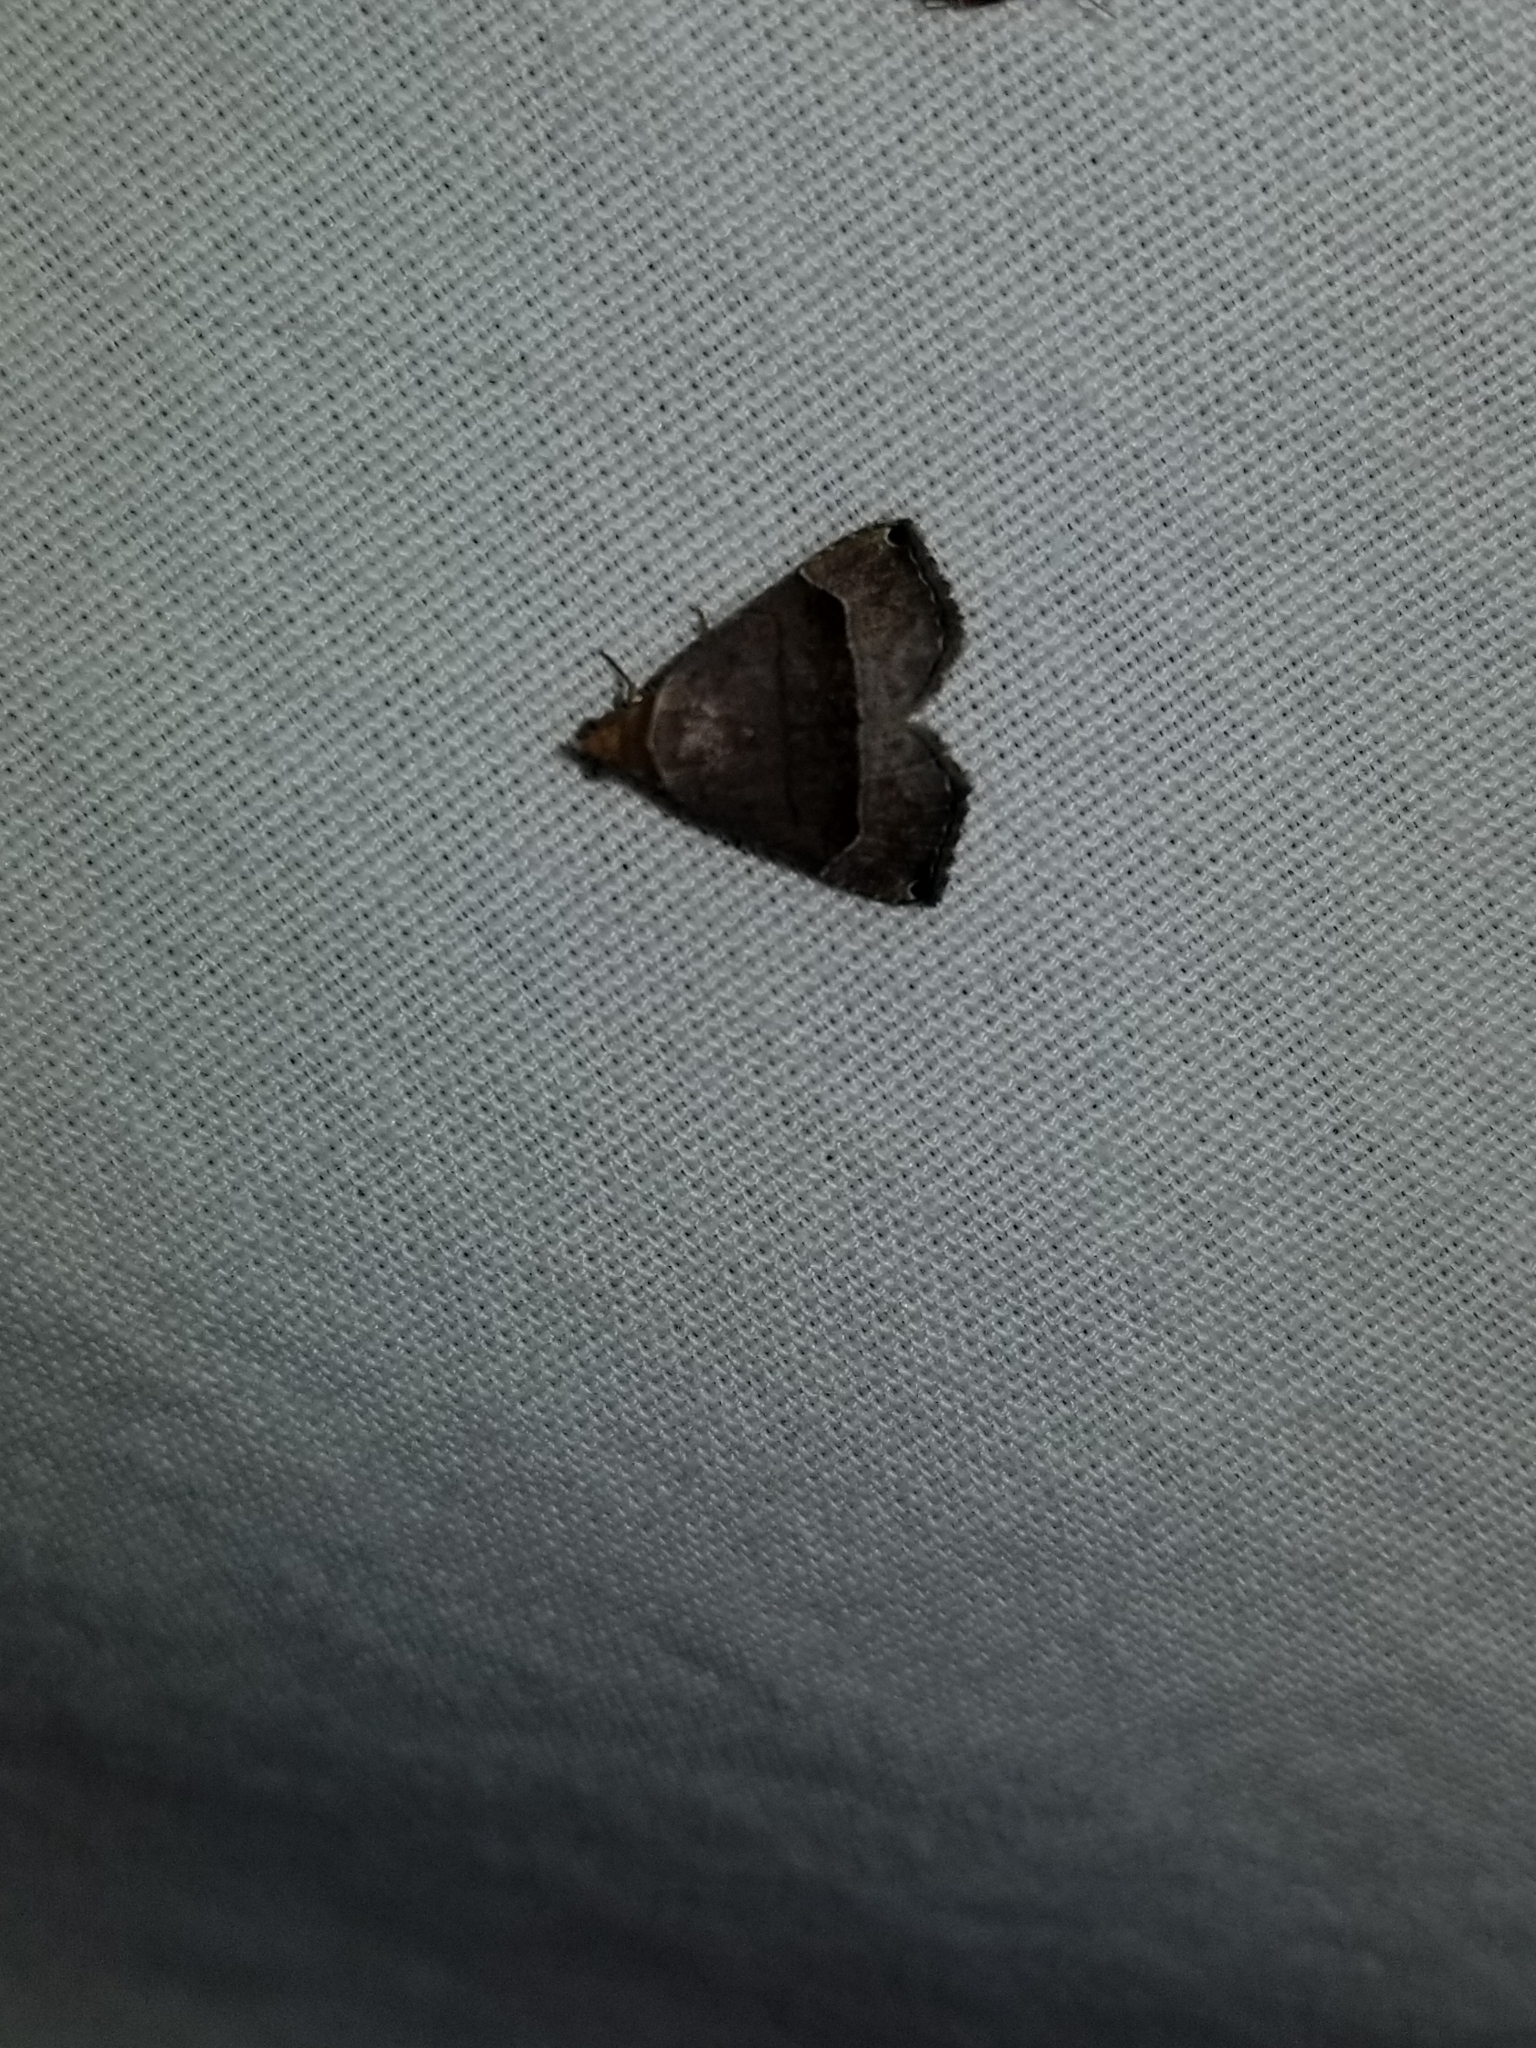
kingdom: Animalia
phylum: Arthropoda
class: Insecta
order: Lepidoptera
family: Noctuidae
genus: Abacena
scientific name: Abacena mundula
